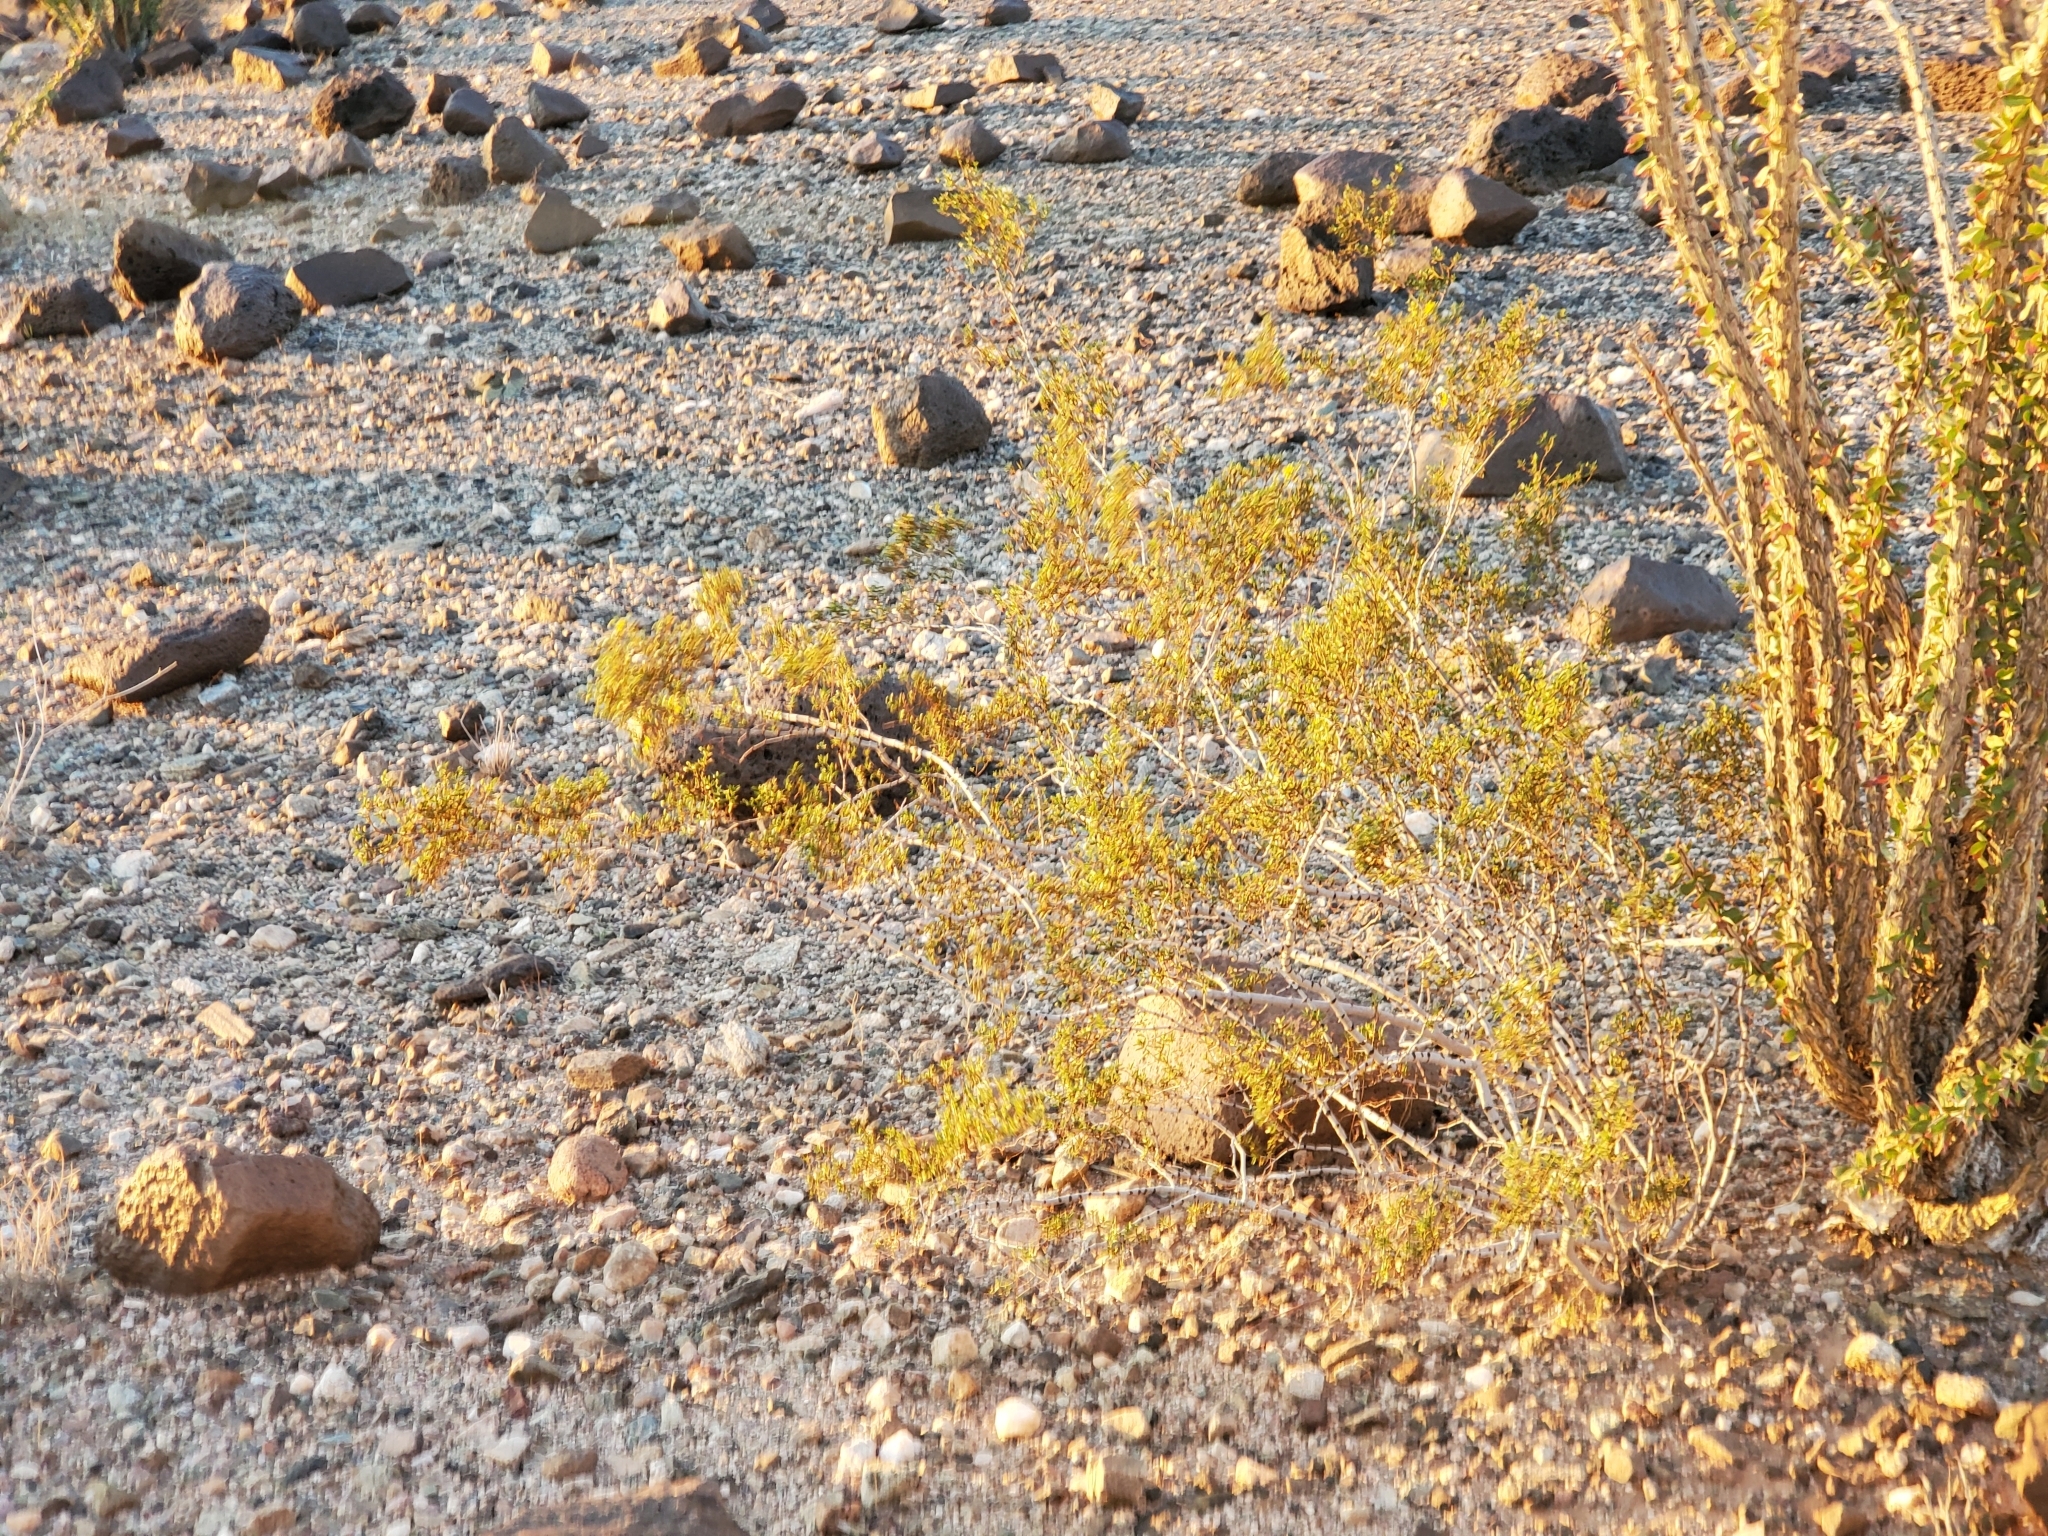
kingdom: Plantae
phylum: Tracheophyta
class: Magnoliopsida
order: Zygophyllales
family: Zygophyllaceae
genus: Larrea
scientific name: Larrea tridentata
